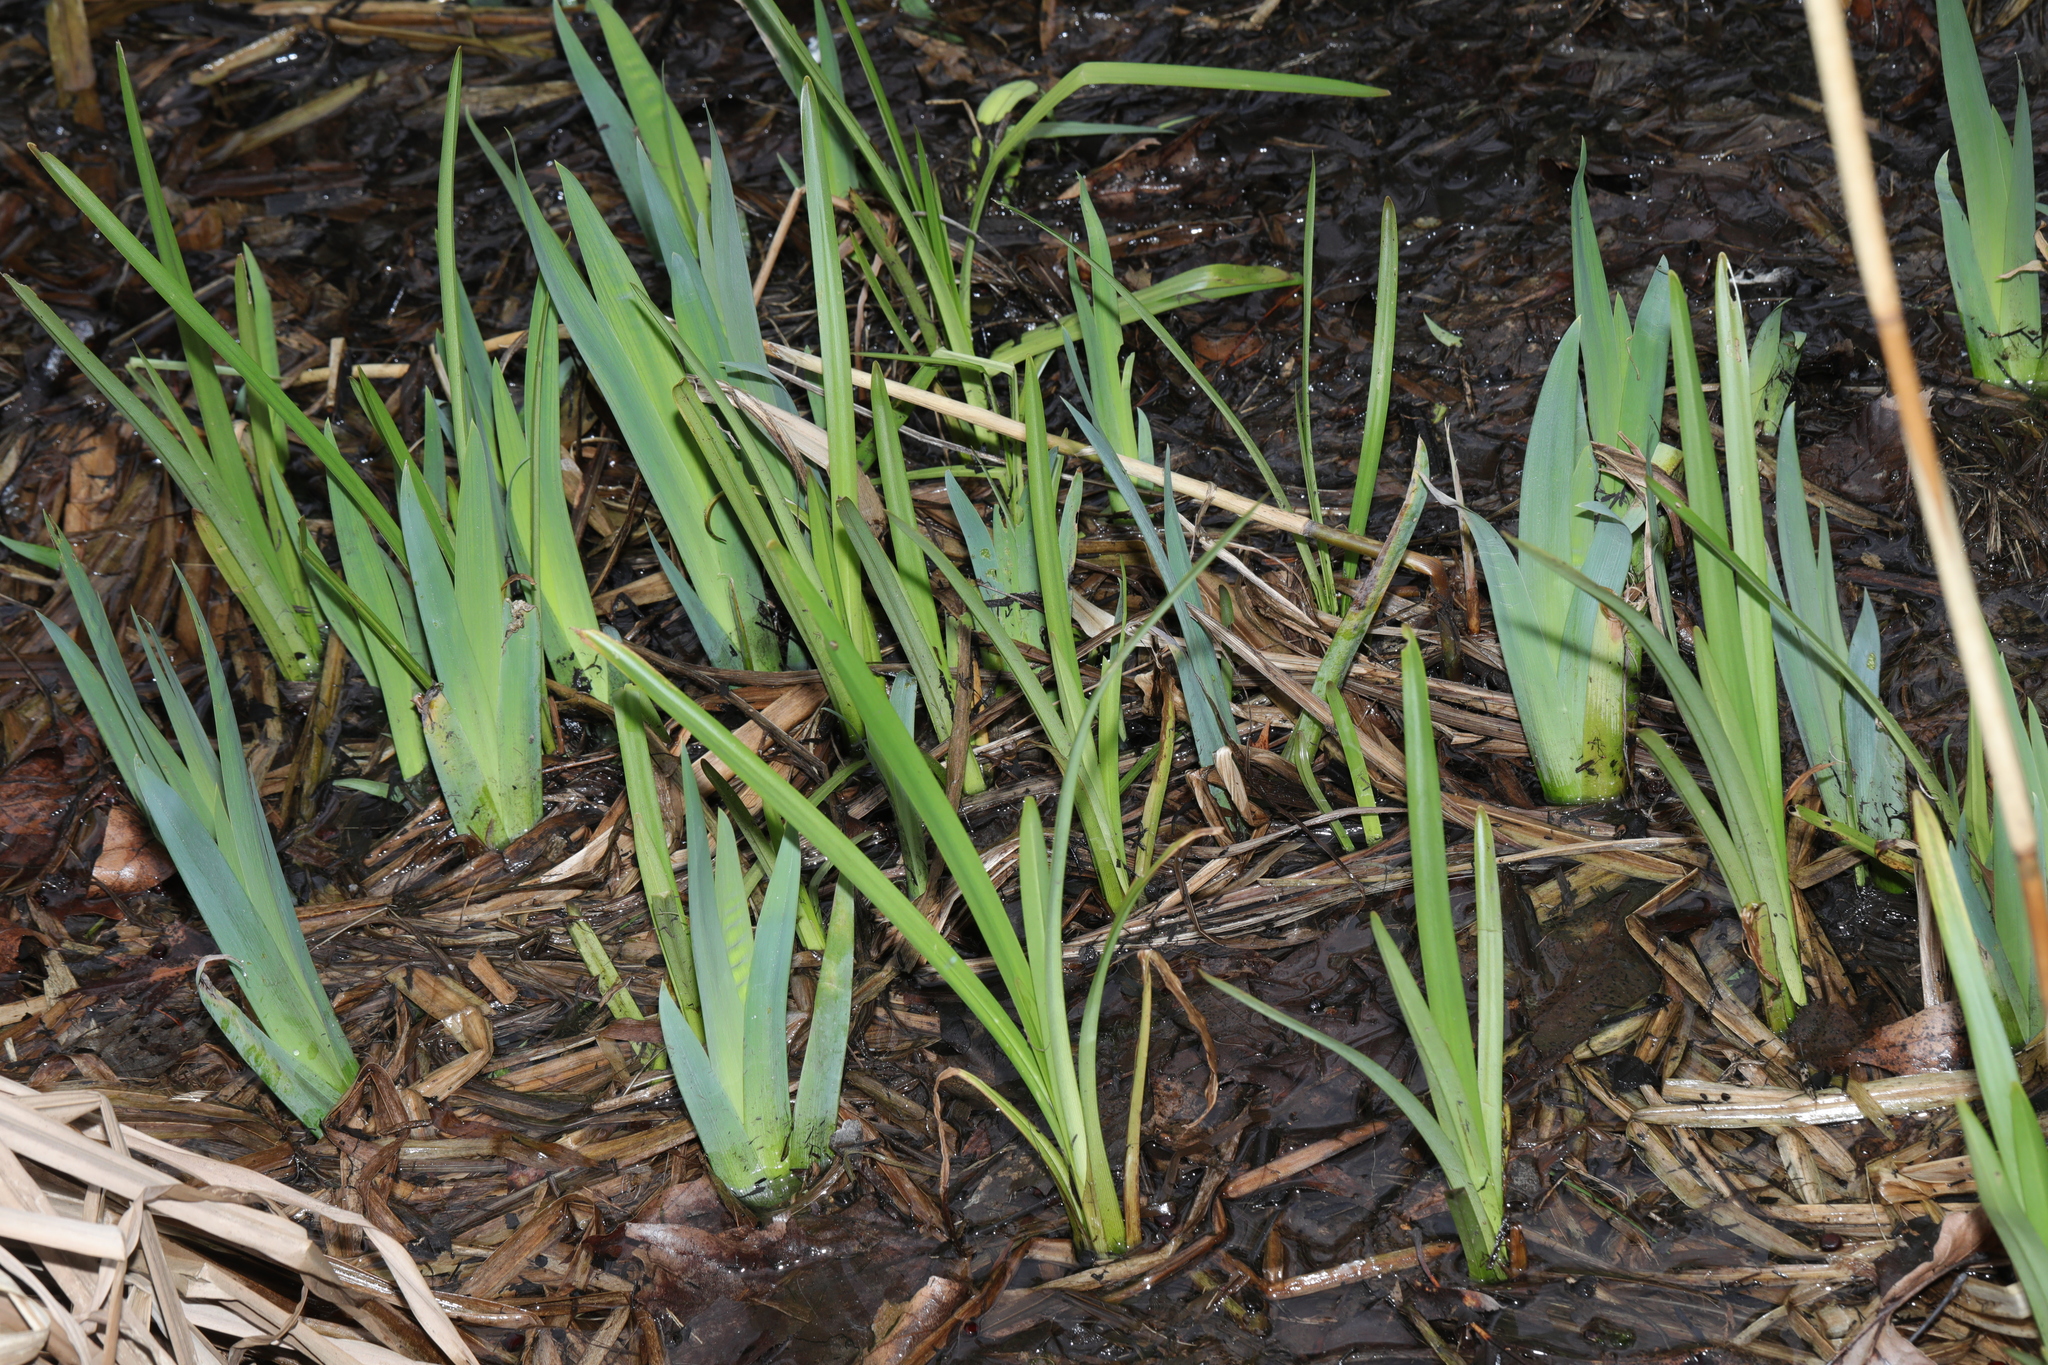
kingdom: Plantae
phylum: Tracheophyta
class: Liliopsida
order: Asparagales
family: Iridaceae
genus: Iris
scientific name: Iris pseudacorus
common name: Yellow flag
